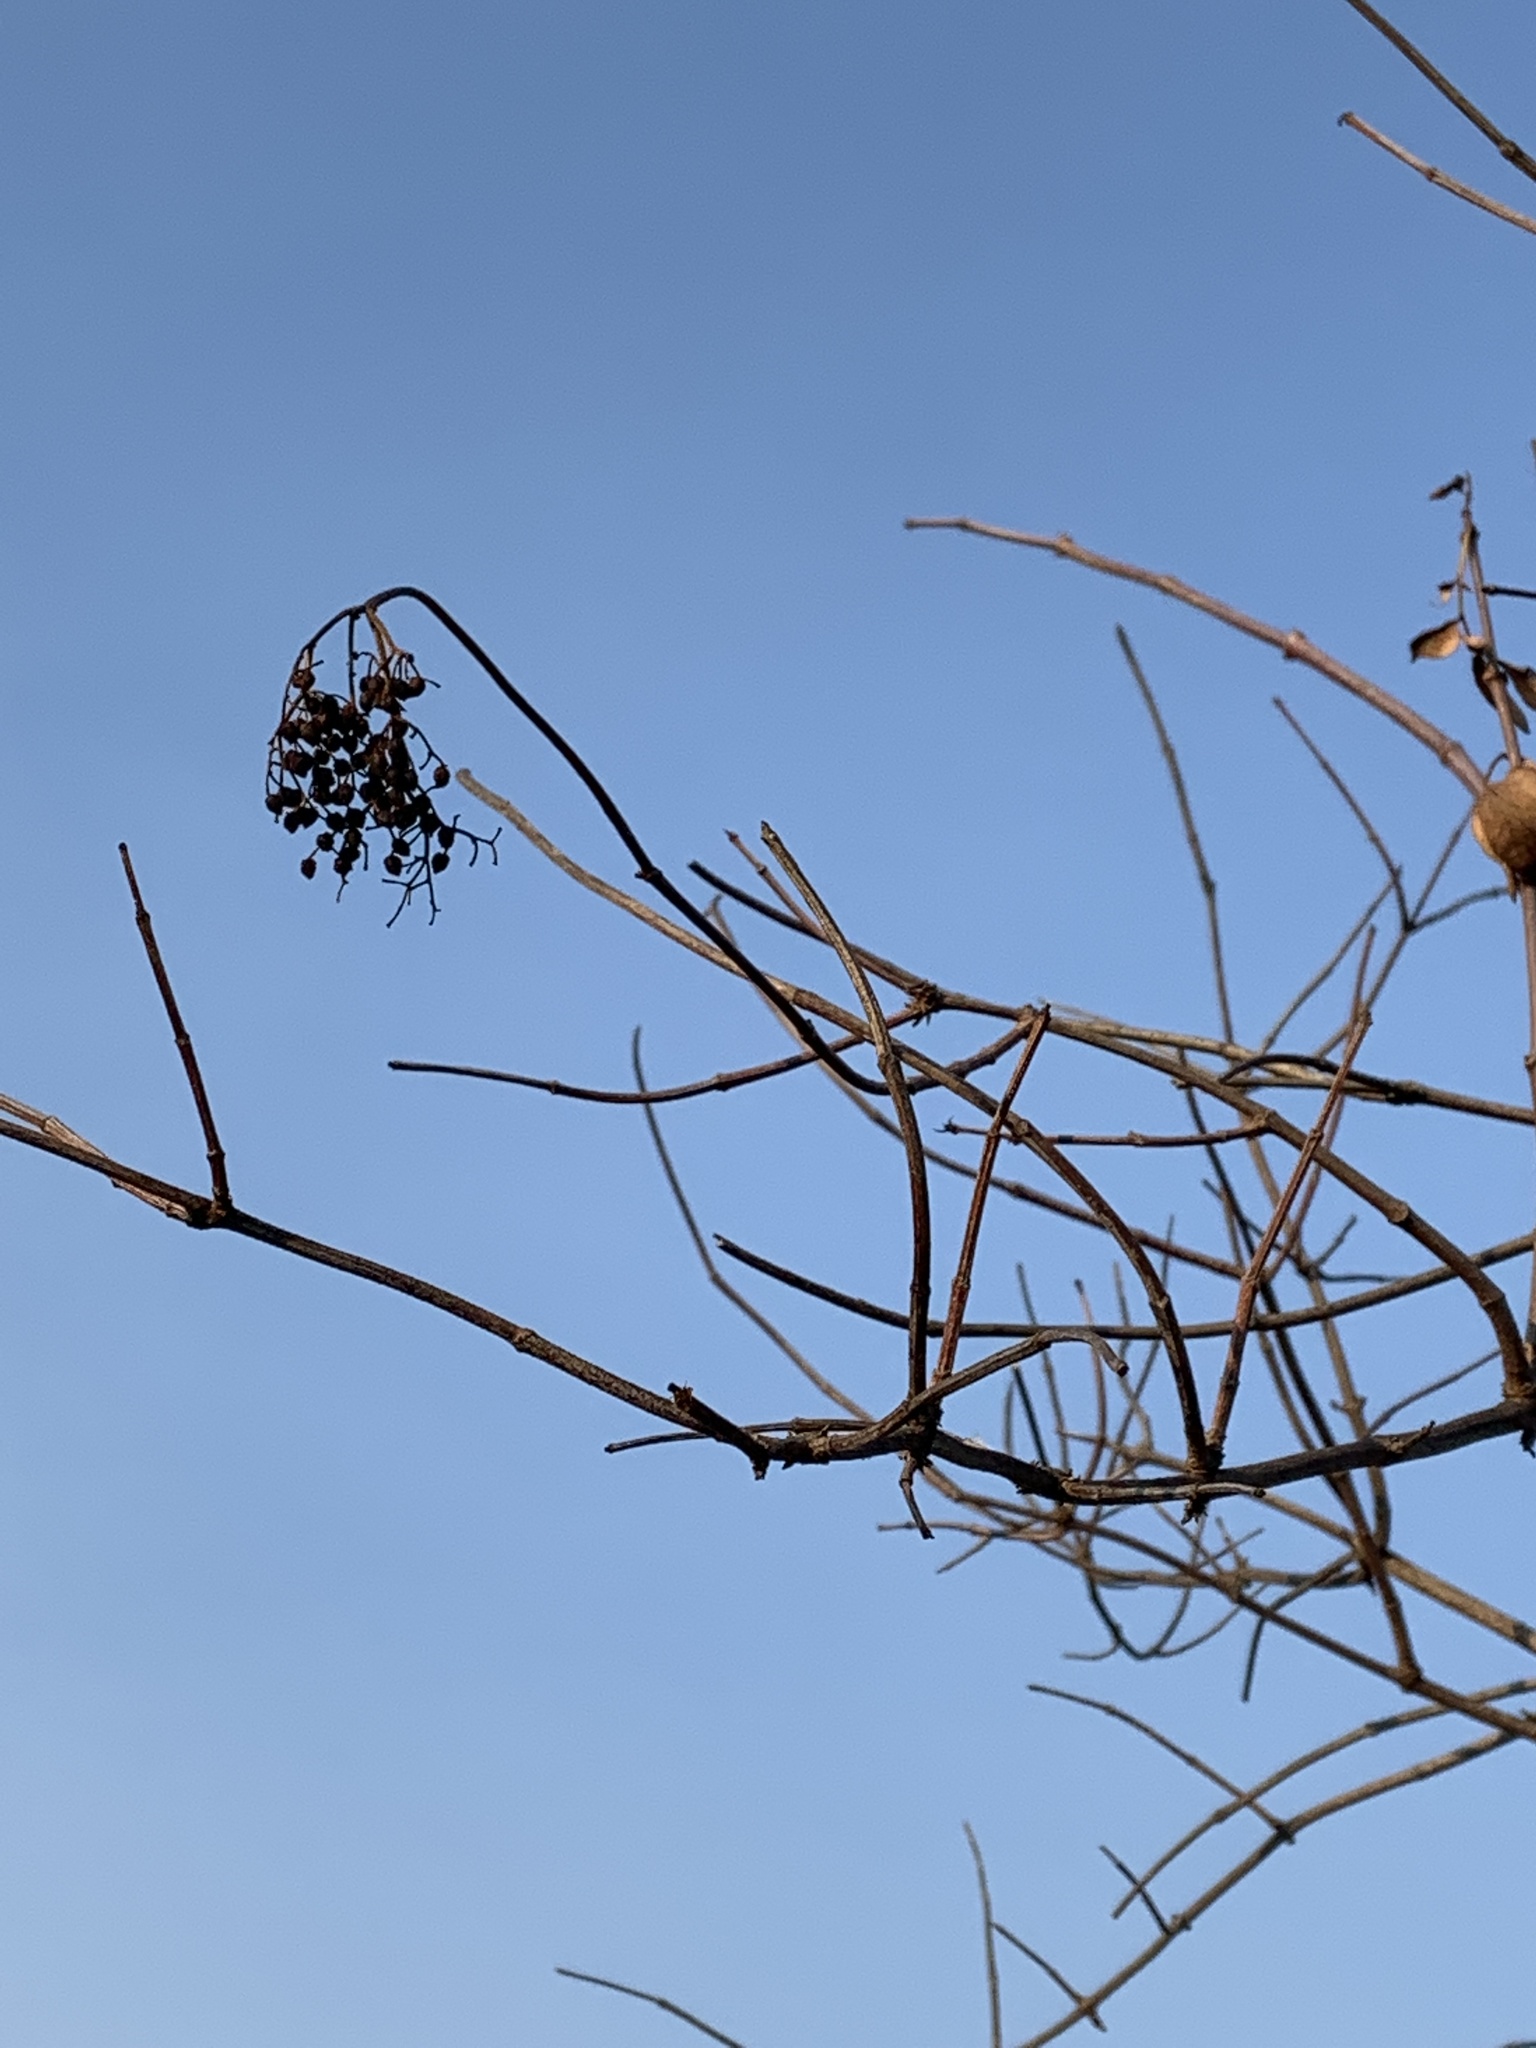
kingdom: Plantae
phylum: Tracheophyta
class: Magnoliopsida
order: Dipsacales
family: Viburnaceae
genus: Sambucus
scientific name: Sambucus cerulea
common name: Blue elder
